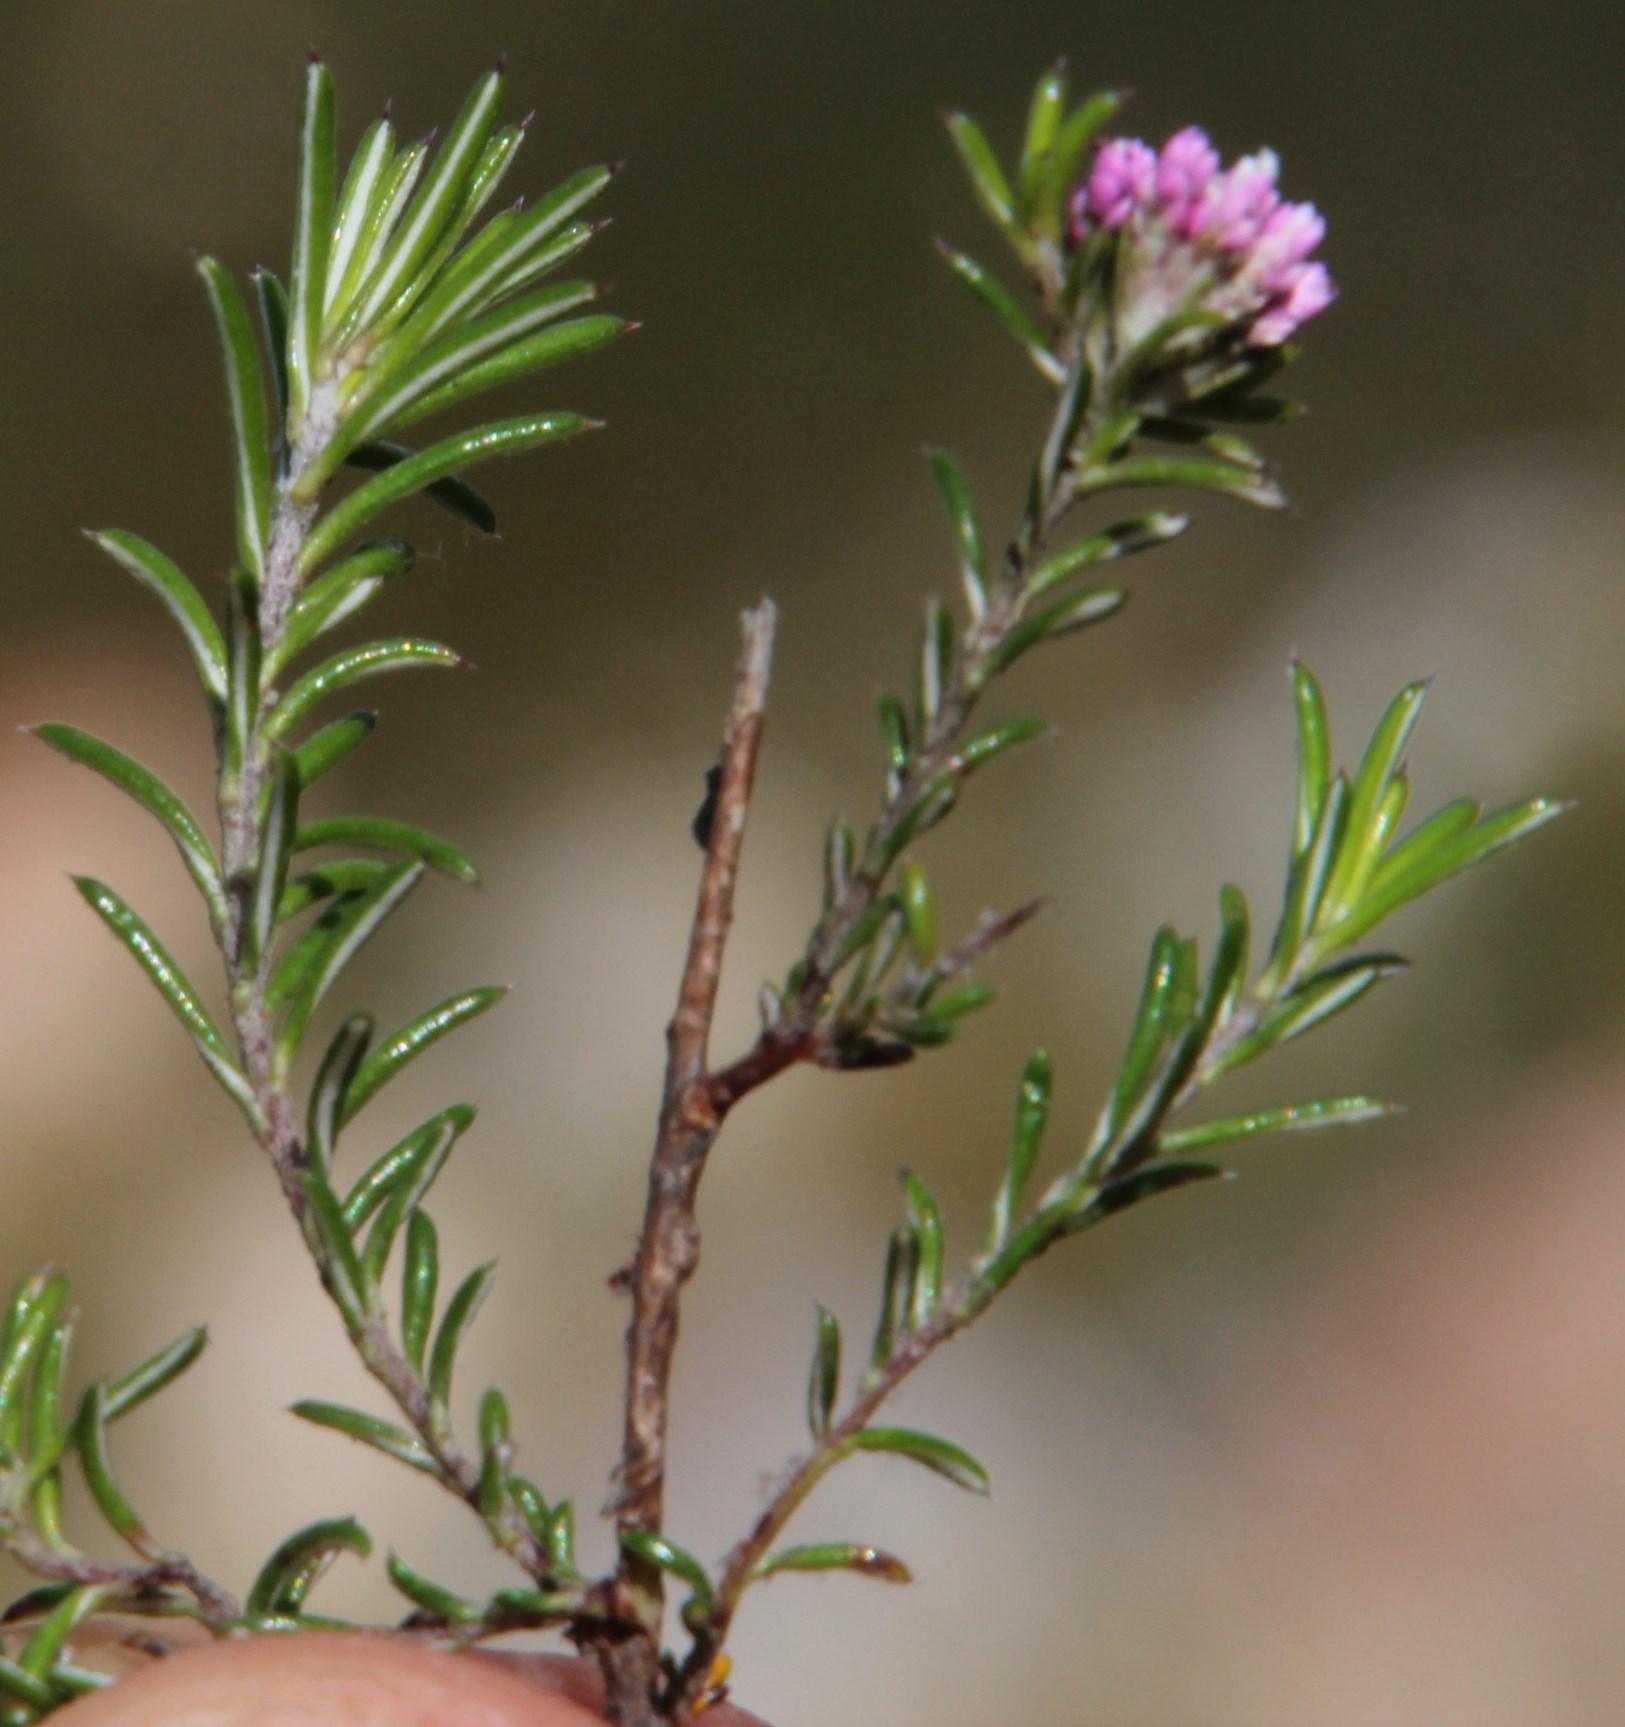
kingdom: Plantae
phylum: Tracheophyta
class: Magnoliopsida
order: Asterales
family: Asteraceae
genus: Metalasia
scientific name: Metalasia serrata
